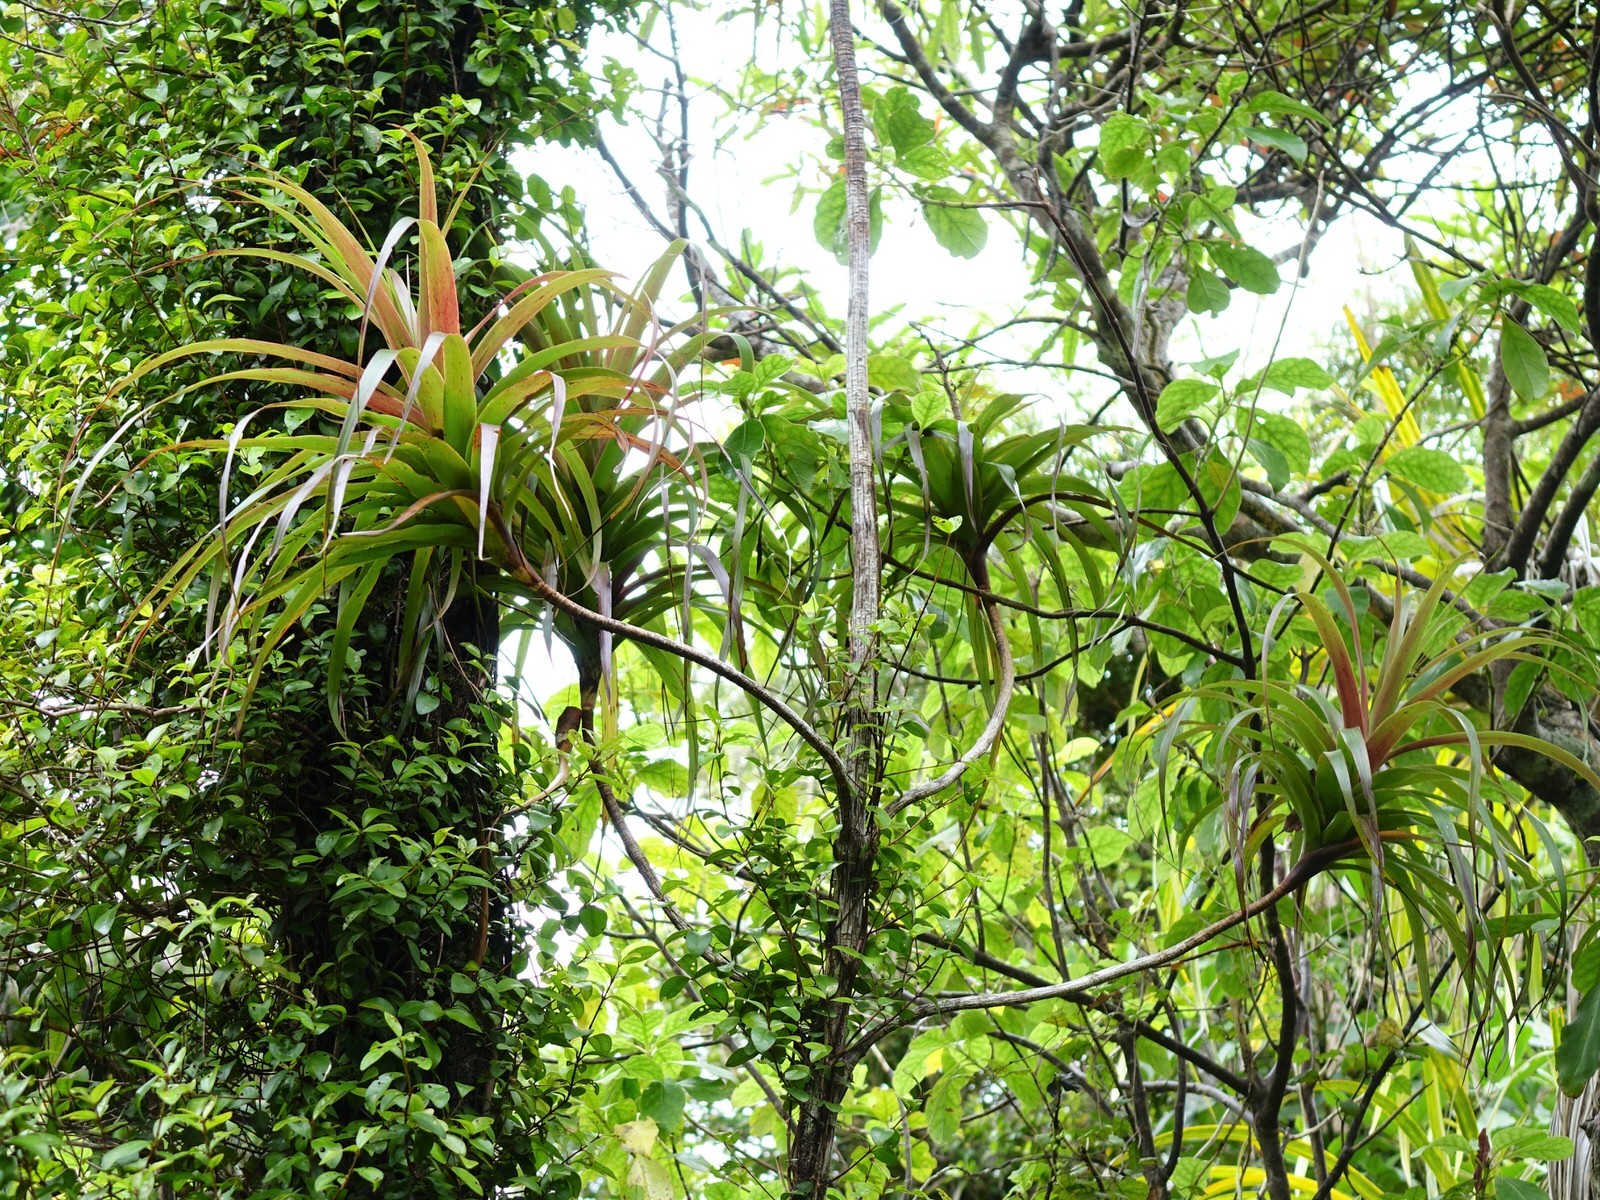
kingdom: Plantae
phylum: Tracheophyta
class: Magnoliopsida
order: Ericales
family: Ericaceae
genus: Dracophyllum
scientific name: Dracophyllum latifolium
